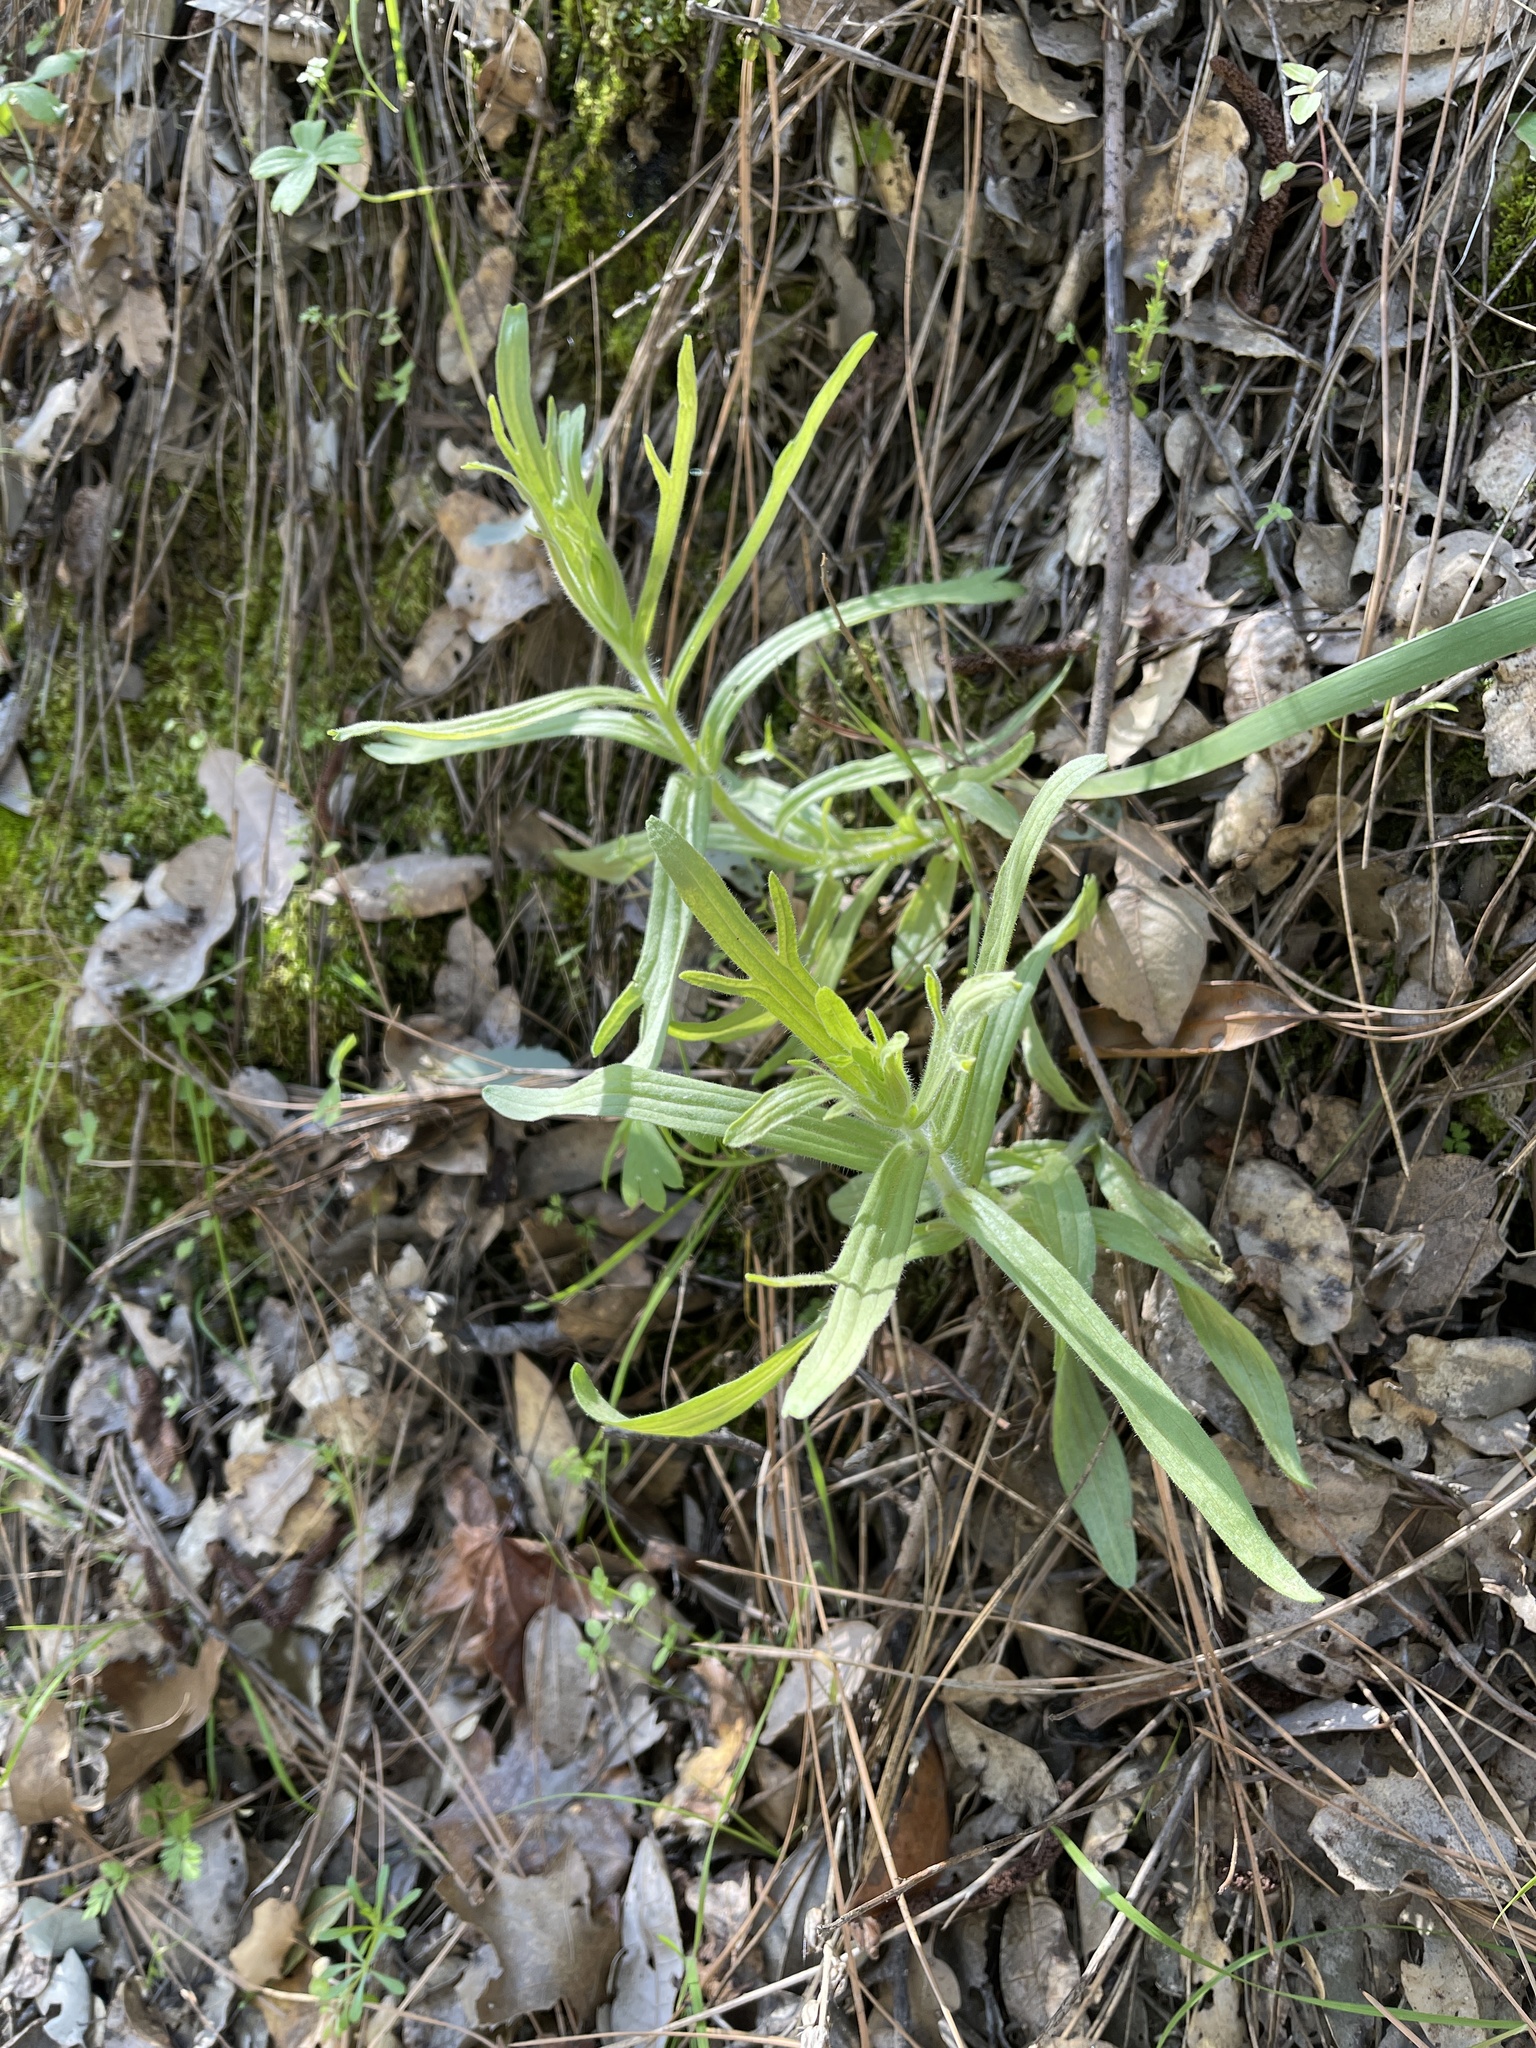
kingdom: Plantae
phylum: Tracheophyta
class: Magnoliopsida
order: Lamiales
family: Orobanchaceae
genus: Castilleja
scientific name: Castilleja affinis
